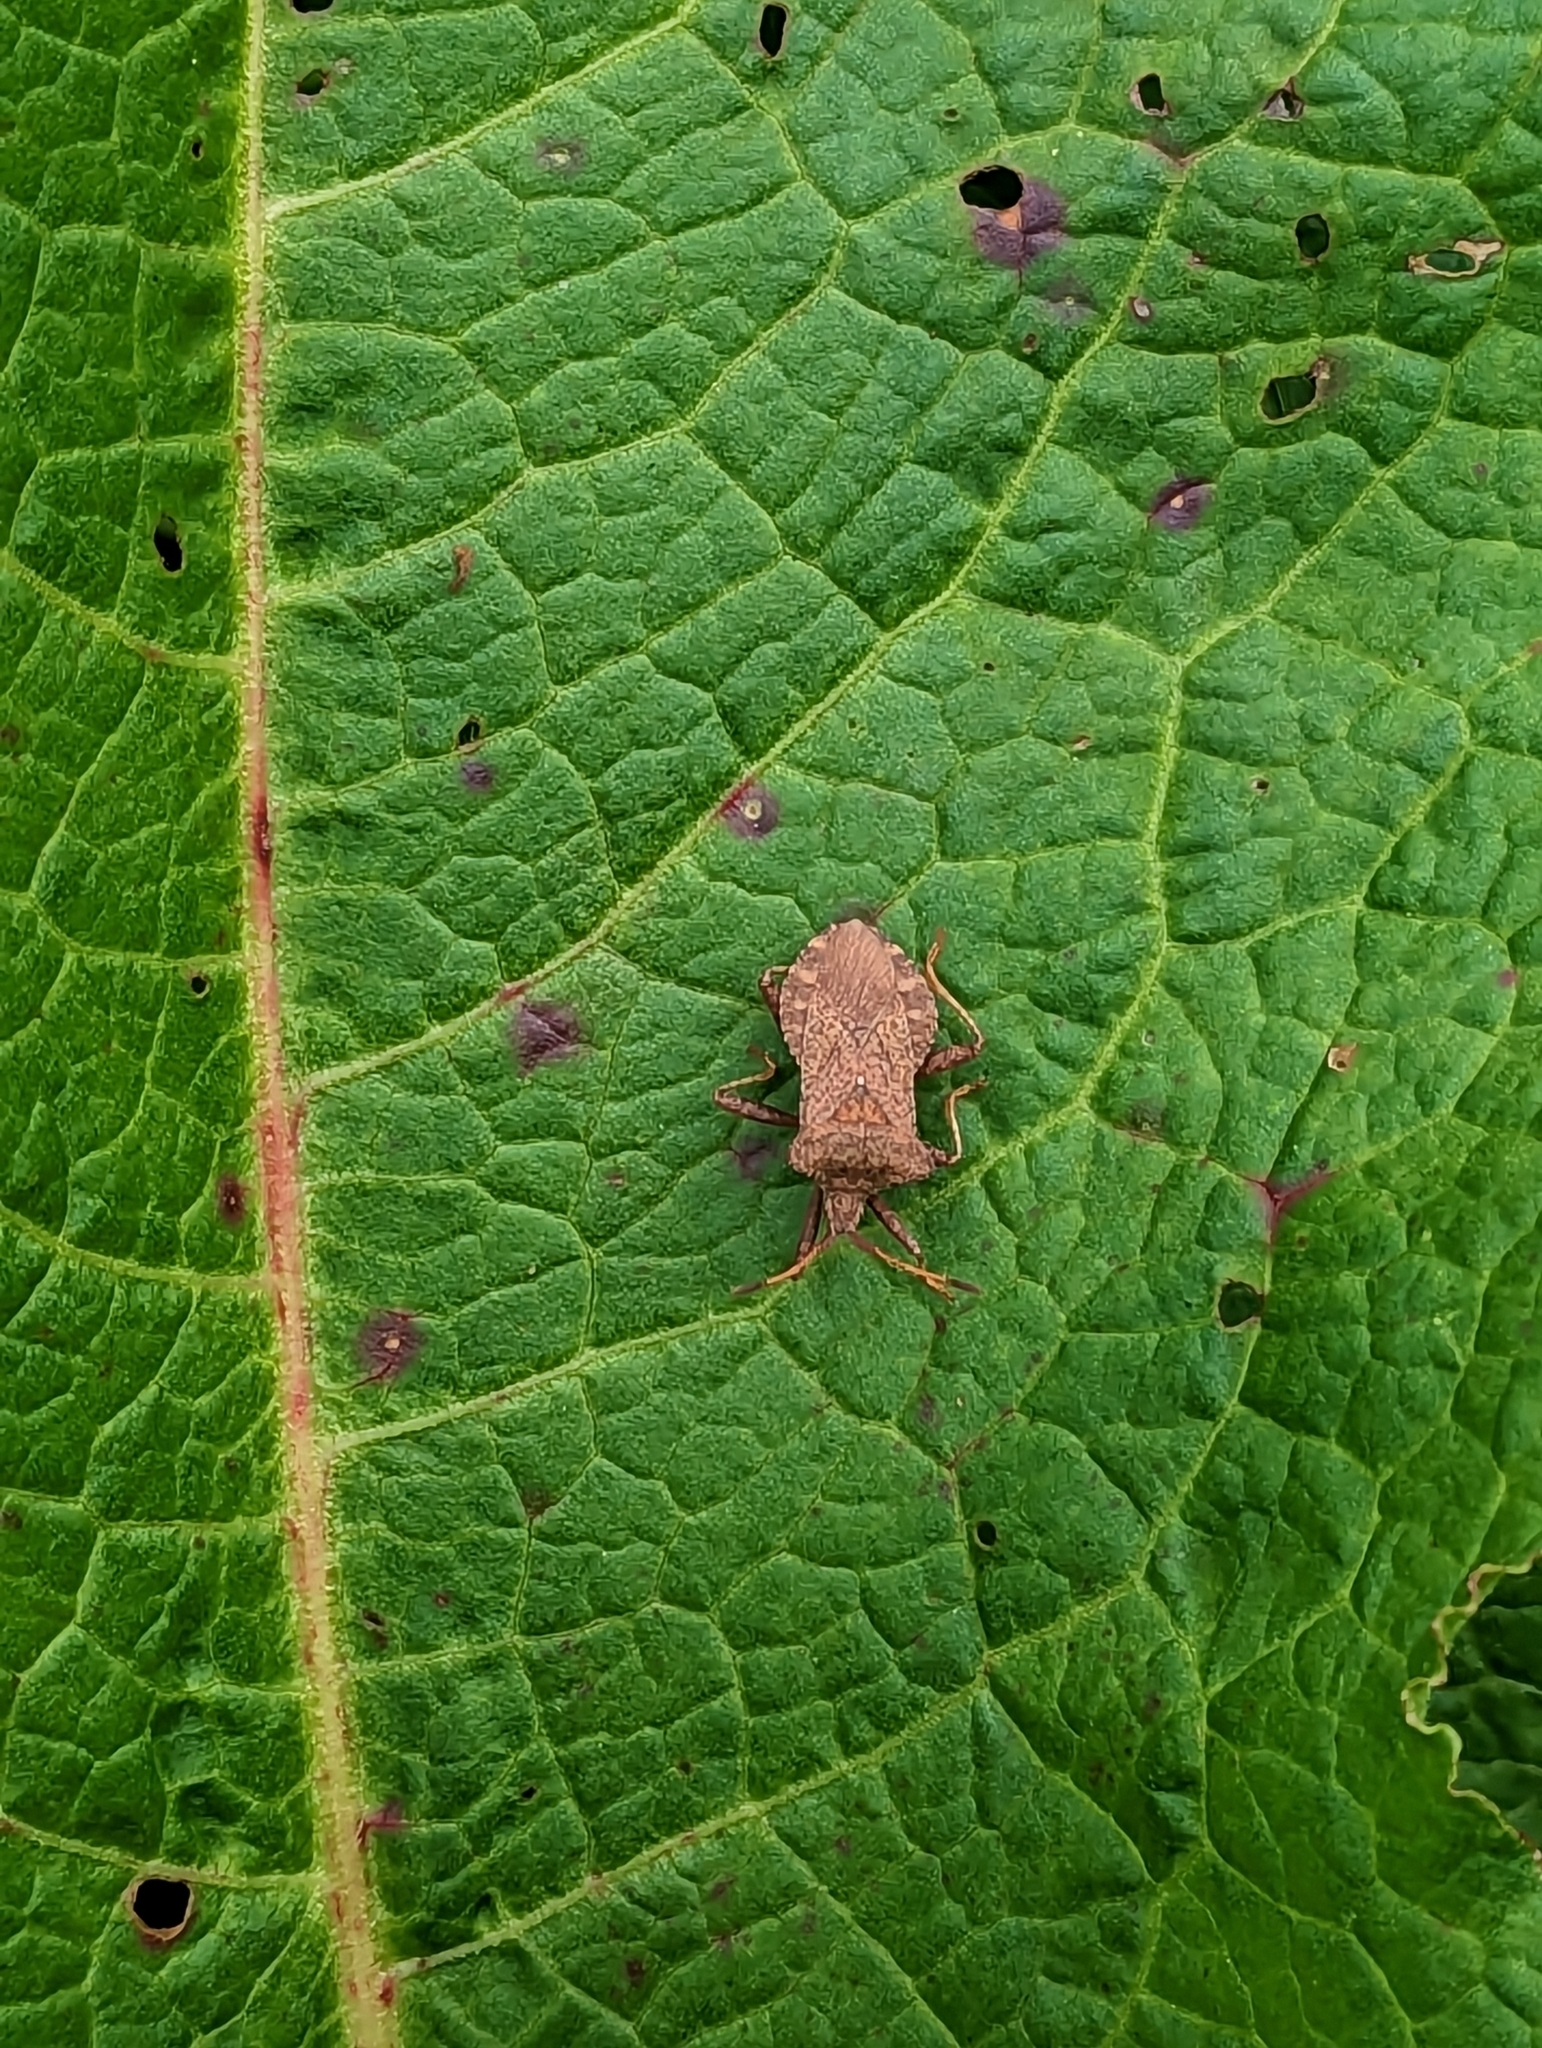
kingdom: Animalia
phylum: Arthropoda
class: Insecta
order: Hemiptera
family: Coreidae
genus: Coreus
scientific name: Coreus marginatus
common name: Dock bug
